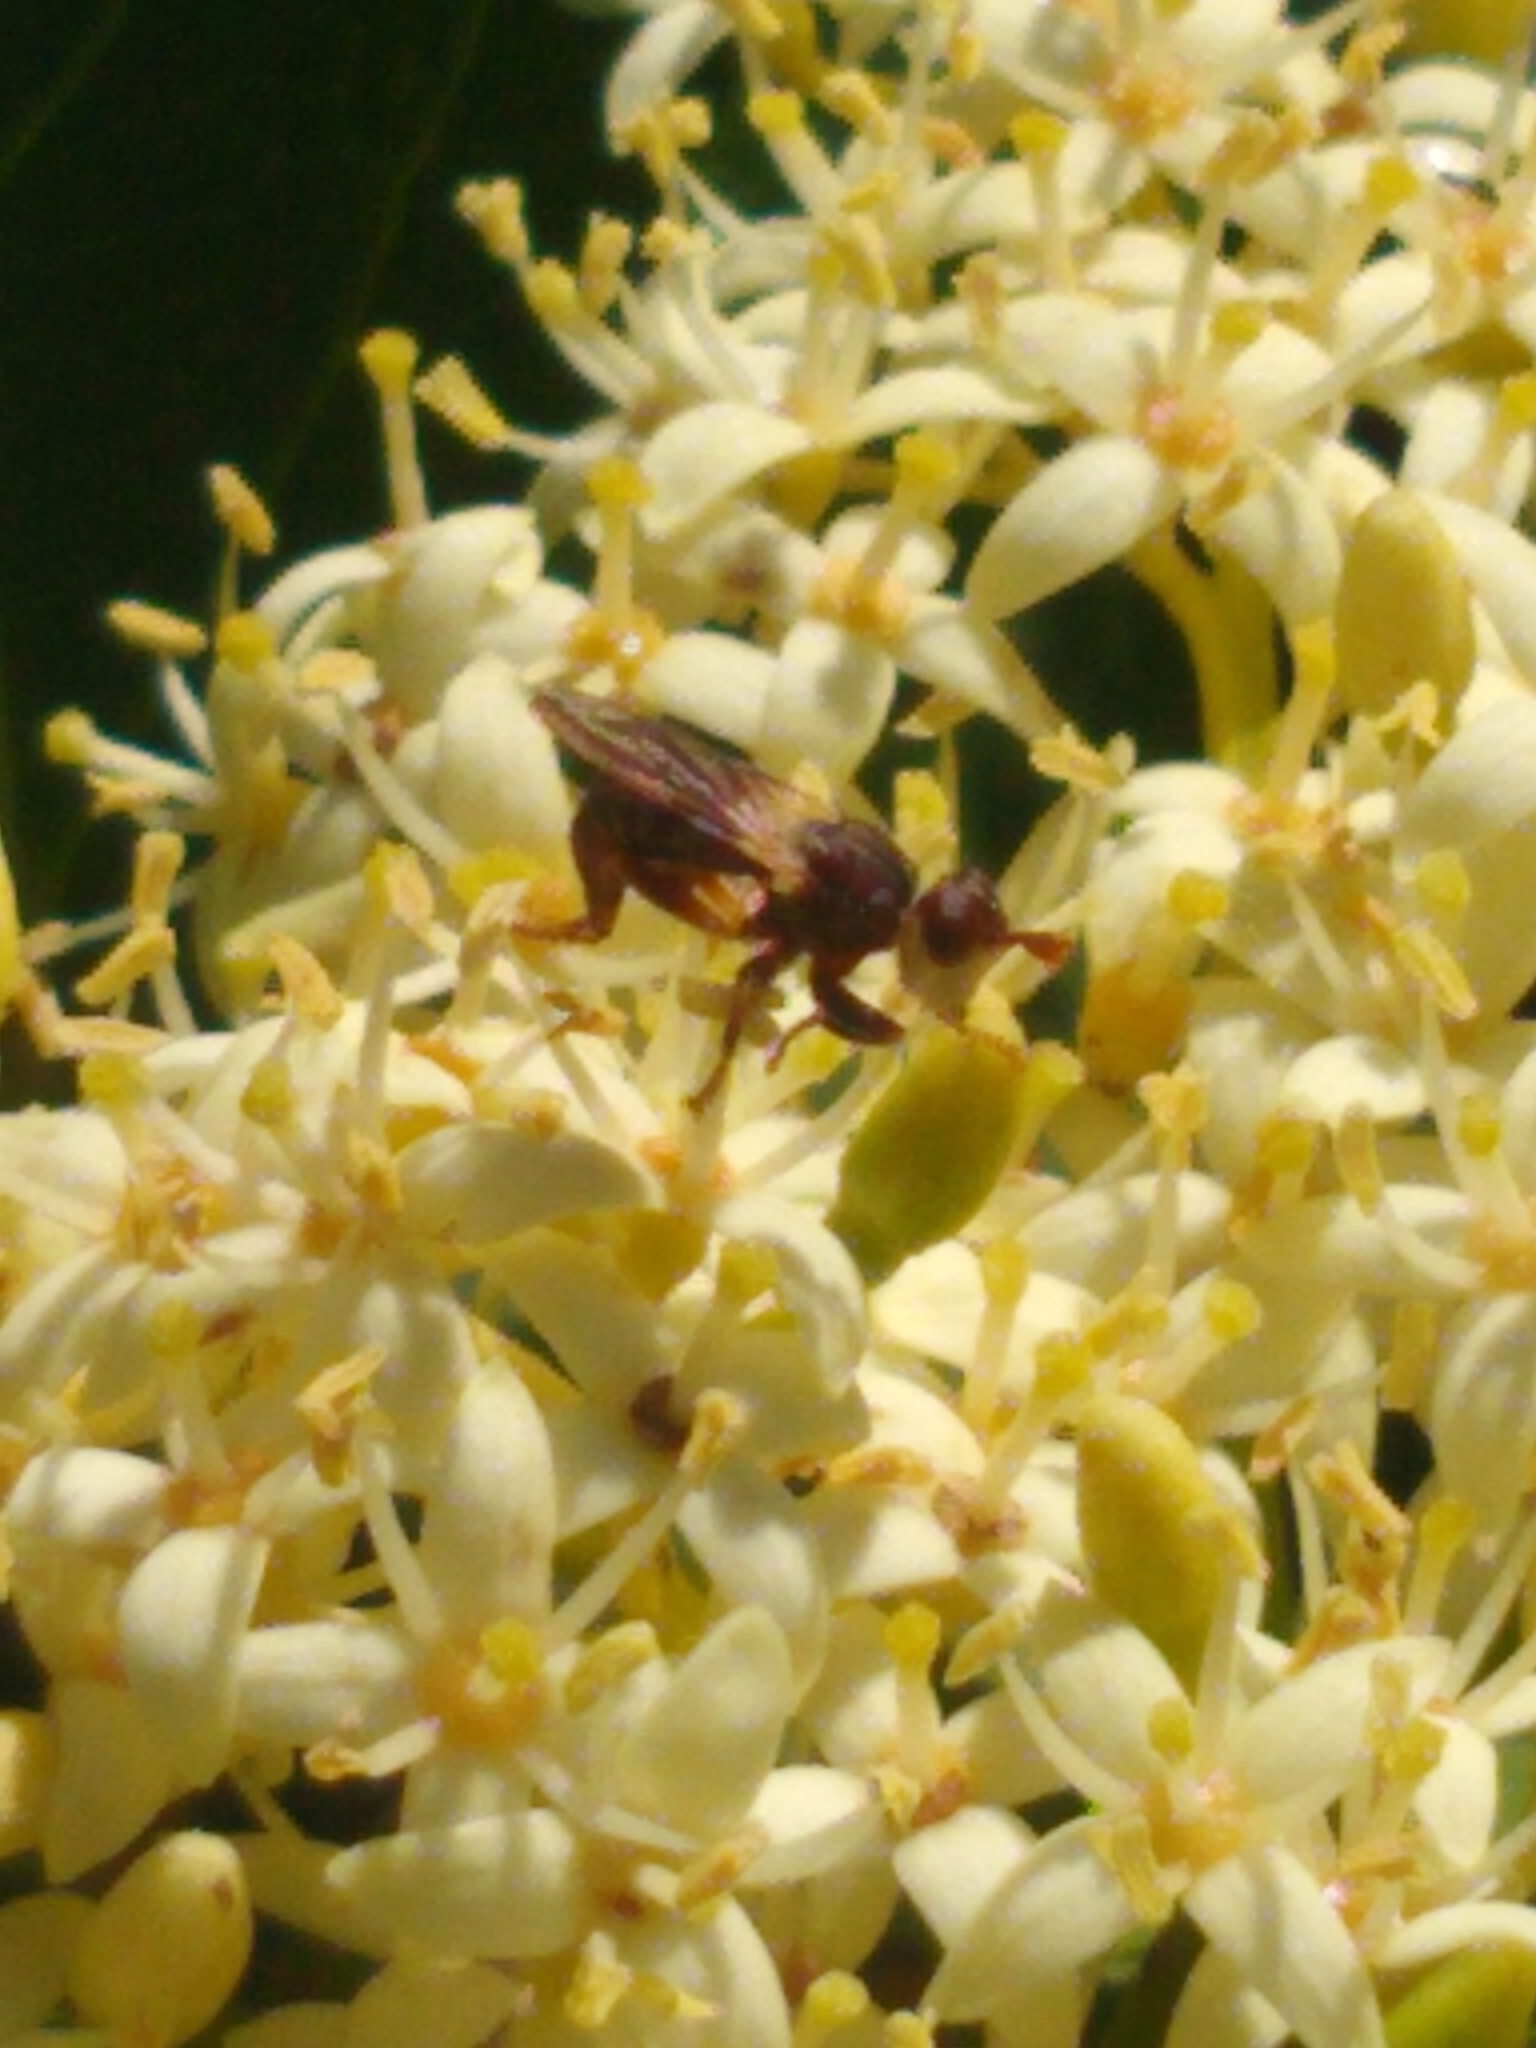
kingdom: Animalia
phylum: Arthropoda
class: Insecta
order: Diptera
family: Conopidae
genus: Myopa
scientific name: Myopa clausa
